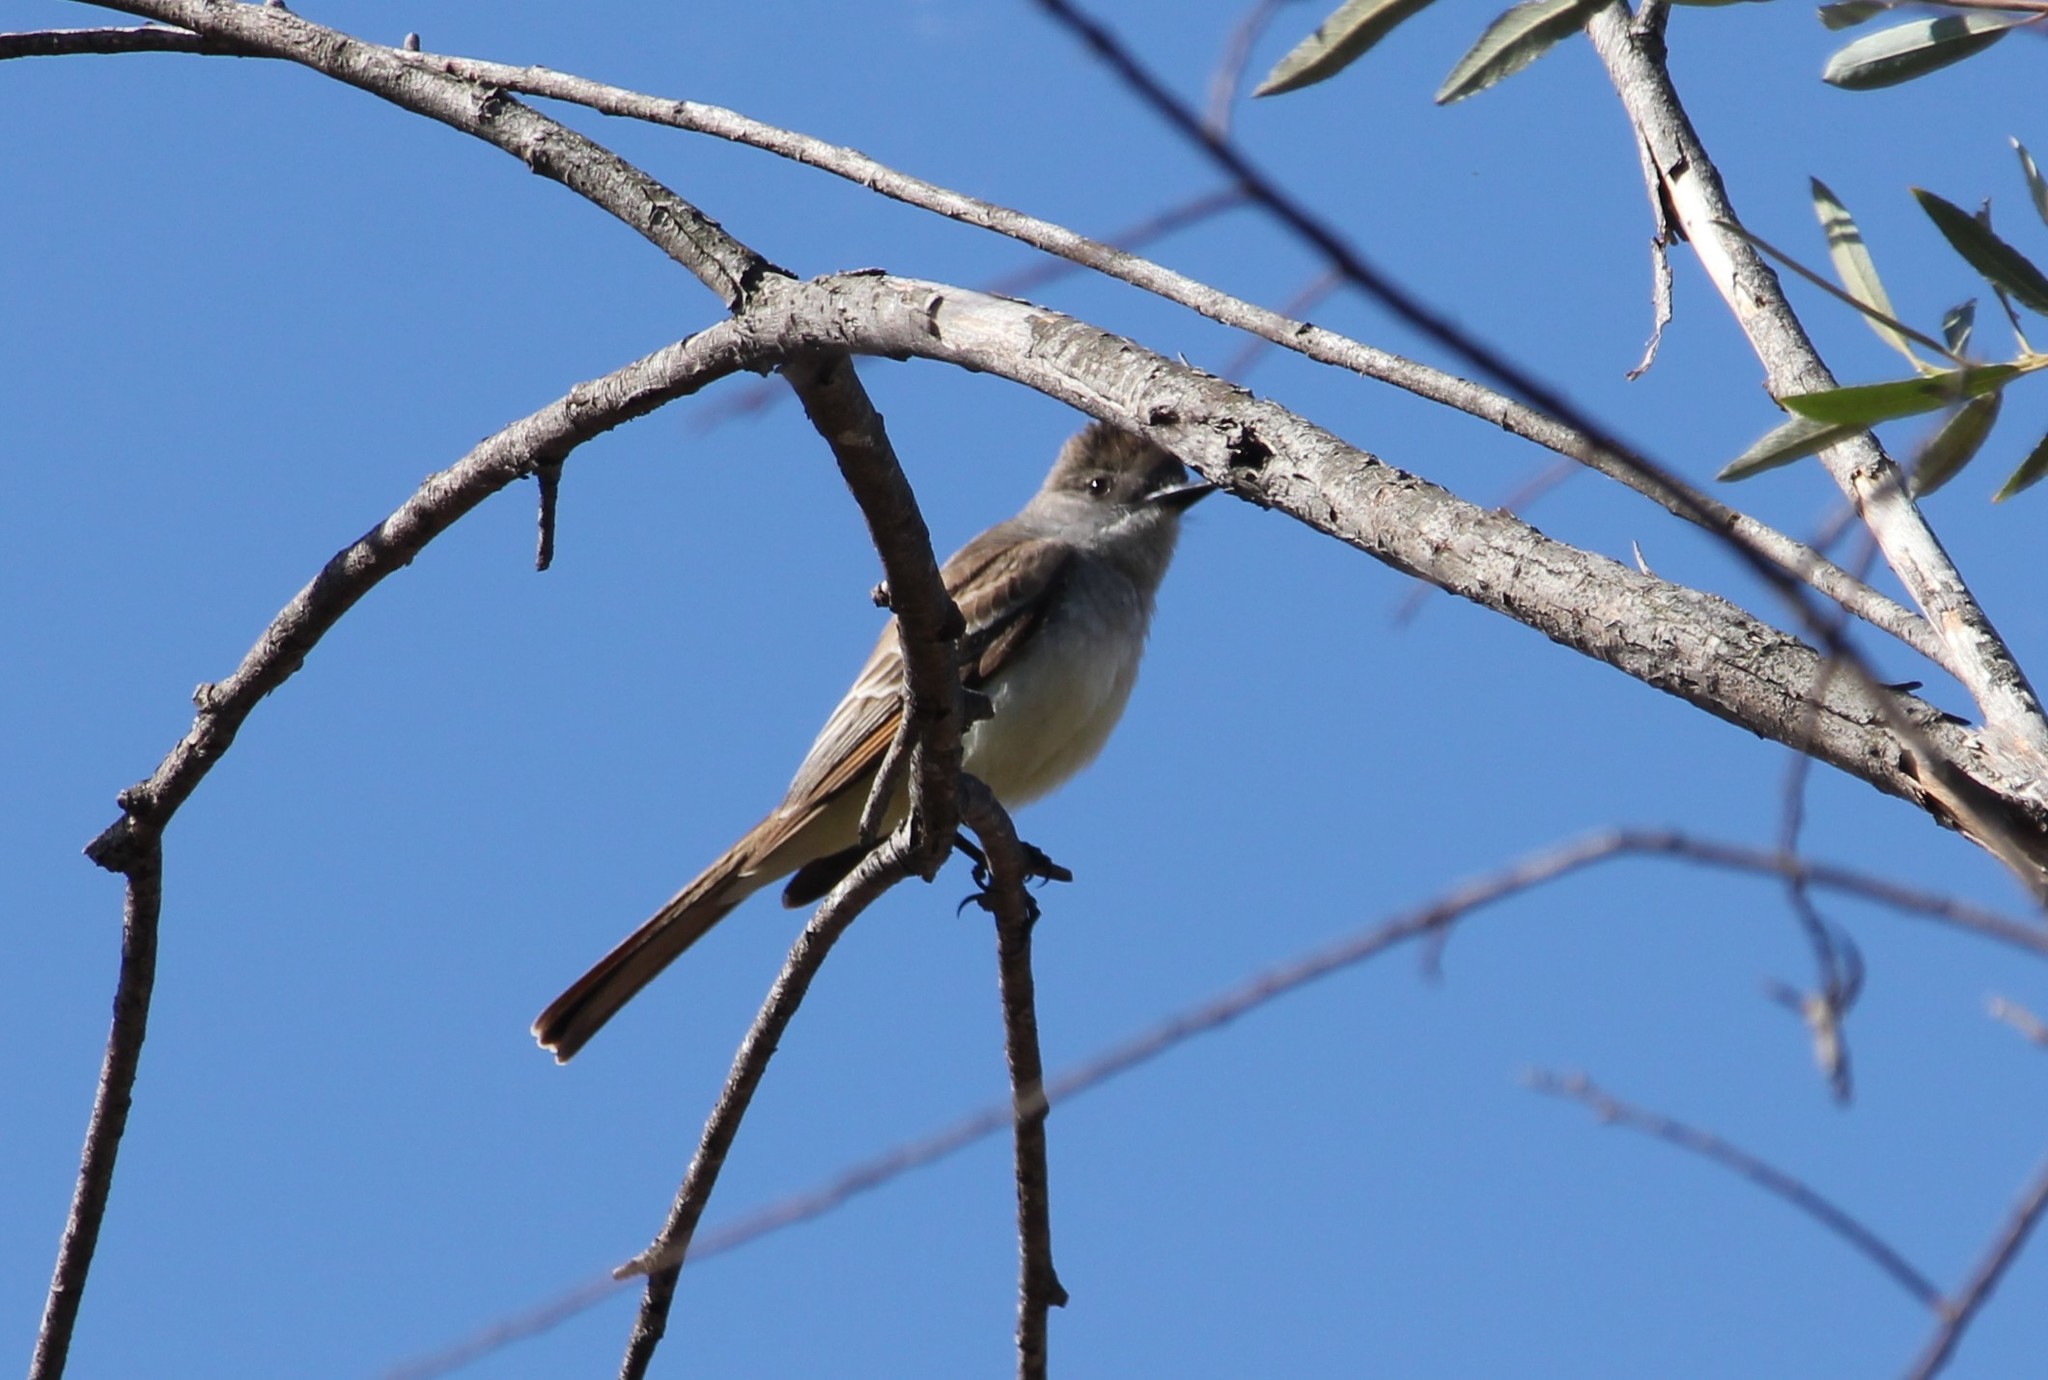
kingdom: Animalia
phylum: Chordata
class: Aves
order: Passeriformes
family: Tyrannidae
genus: Myiarchus
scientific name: Myiarchus cinerascens
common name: Ash-throated flycatcher
